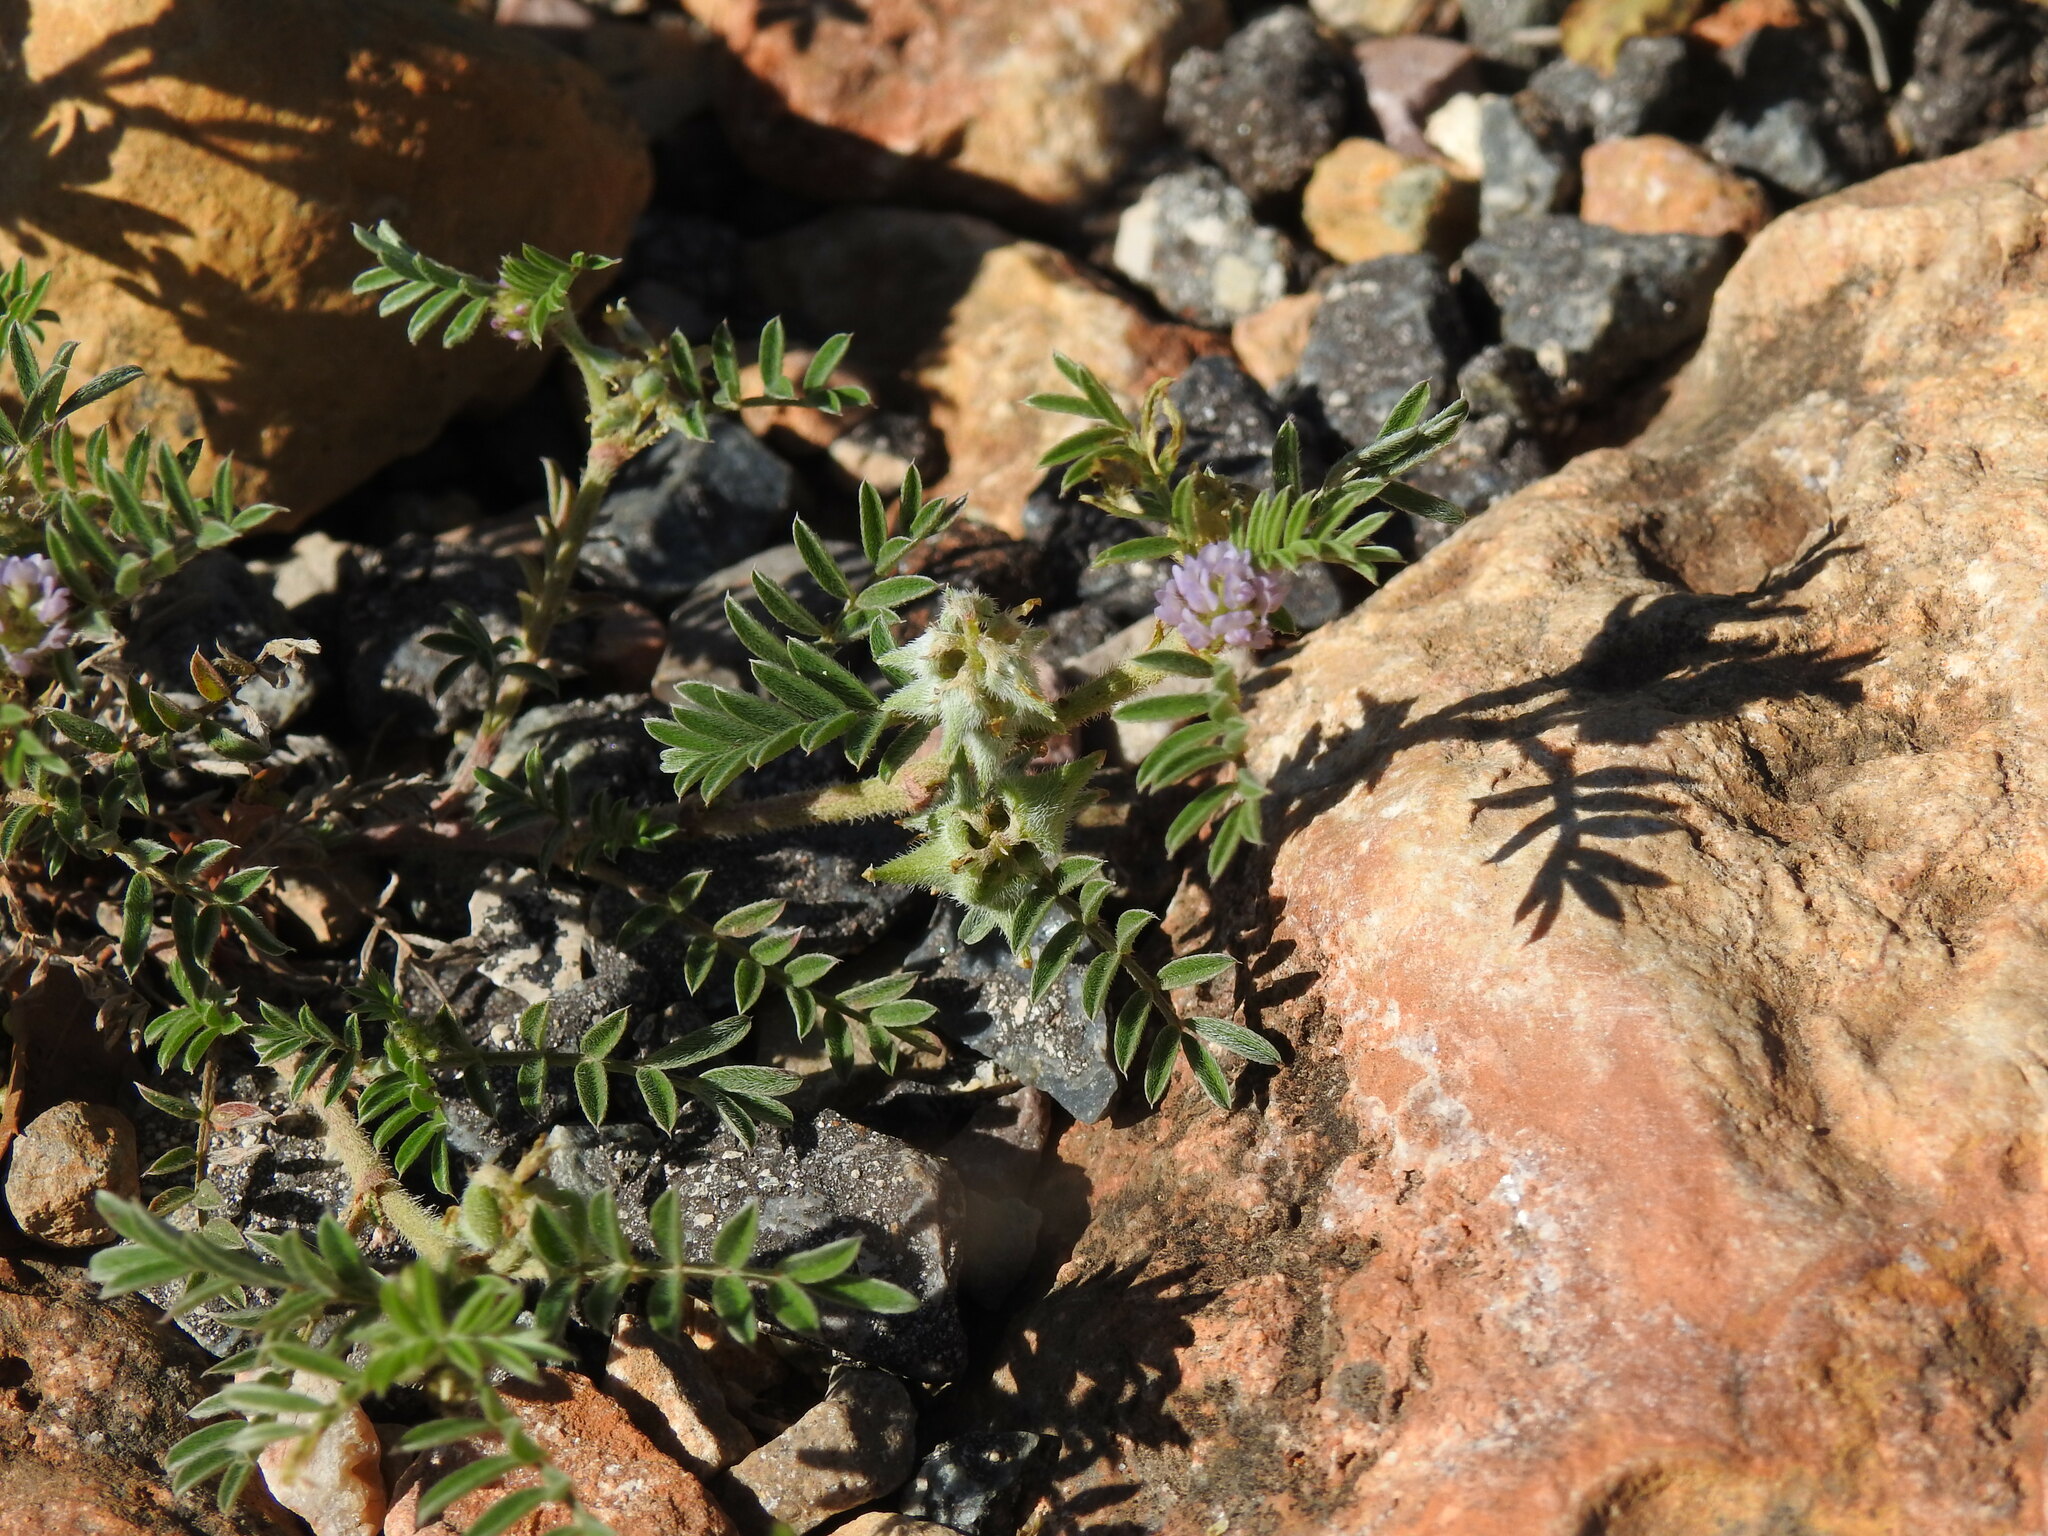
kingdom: Plantae
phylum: Tracheophyta
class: Magnoliopsida
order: Fabales
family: Fabaceae
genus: Biserrula
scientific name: Biserrula epiglottis
